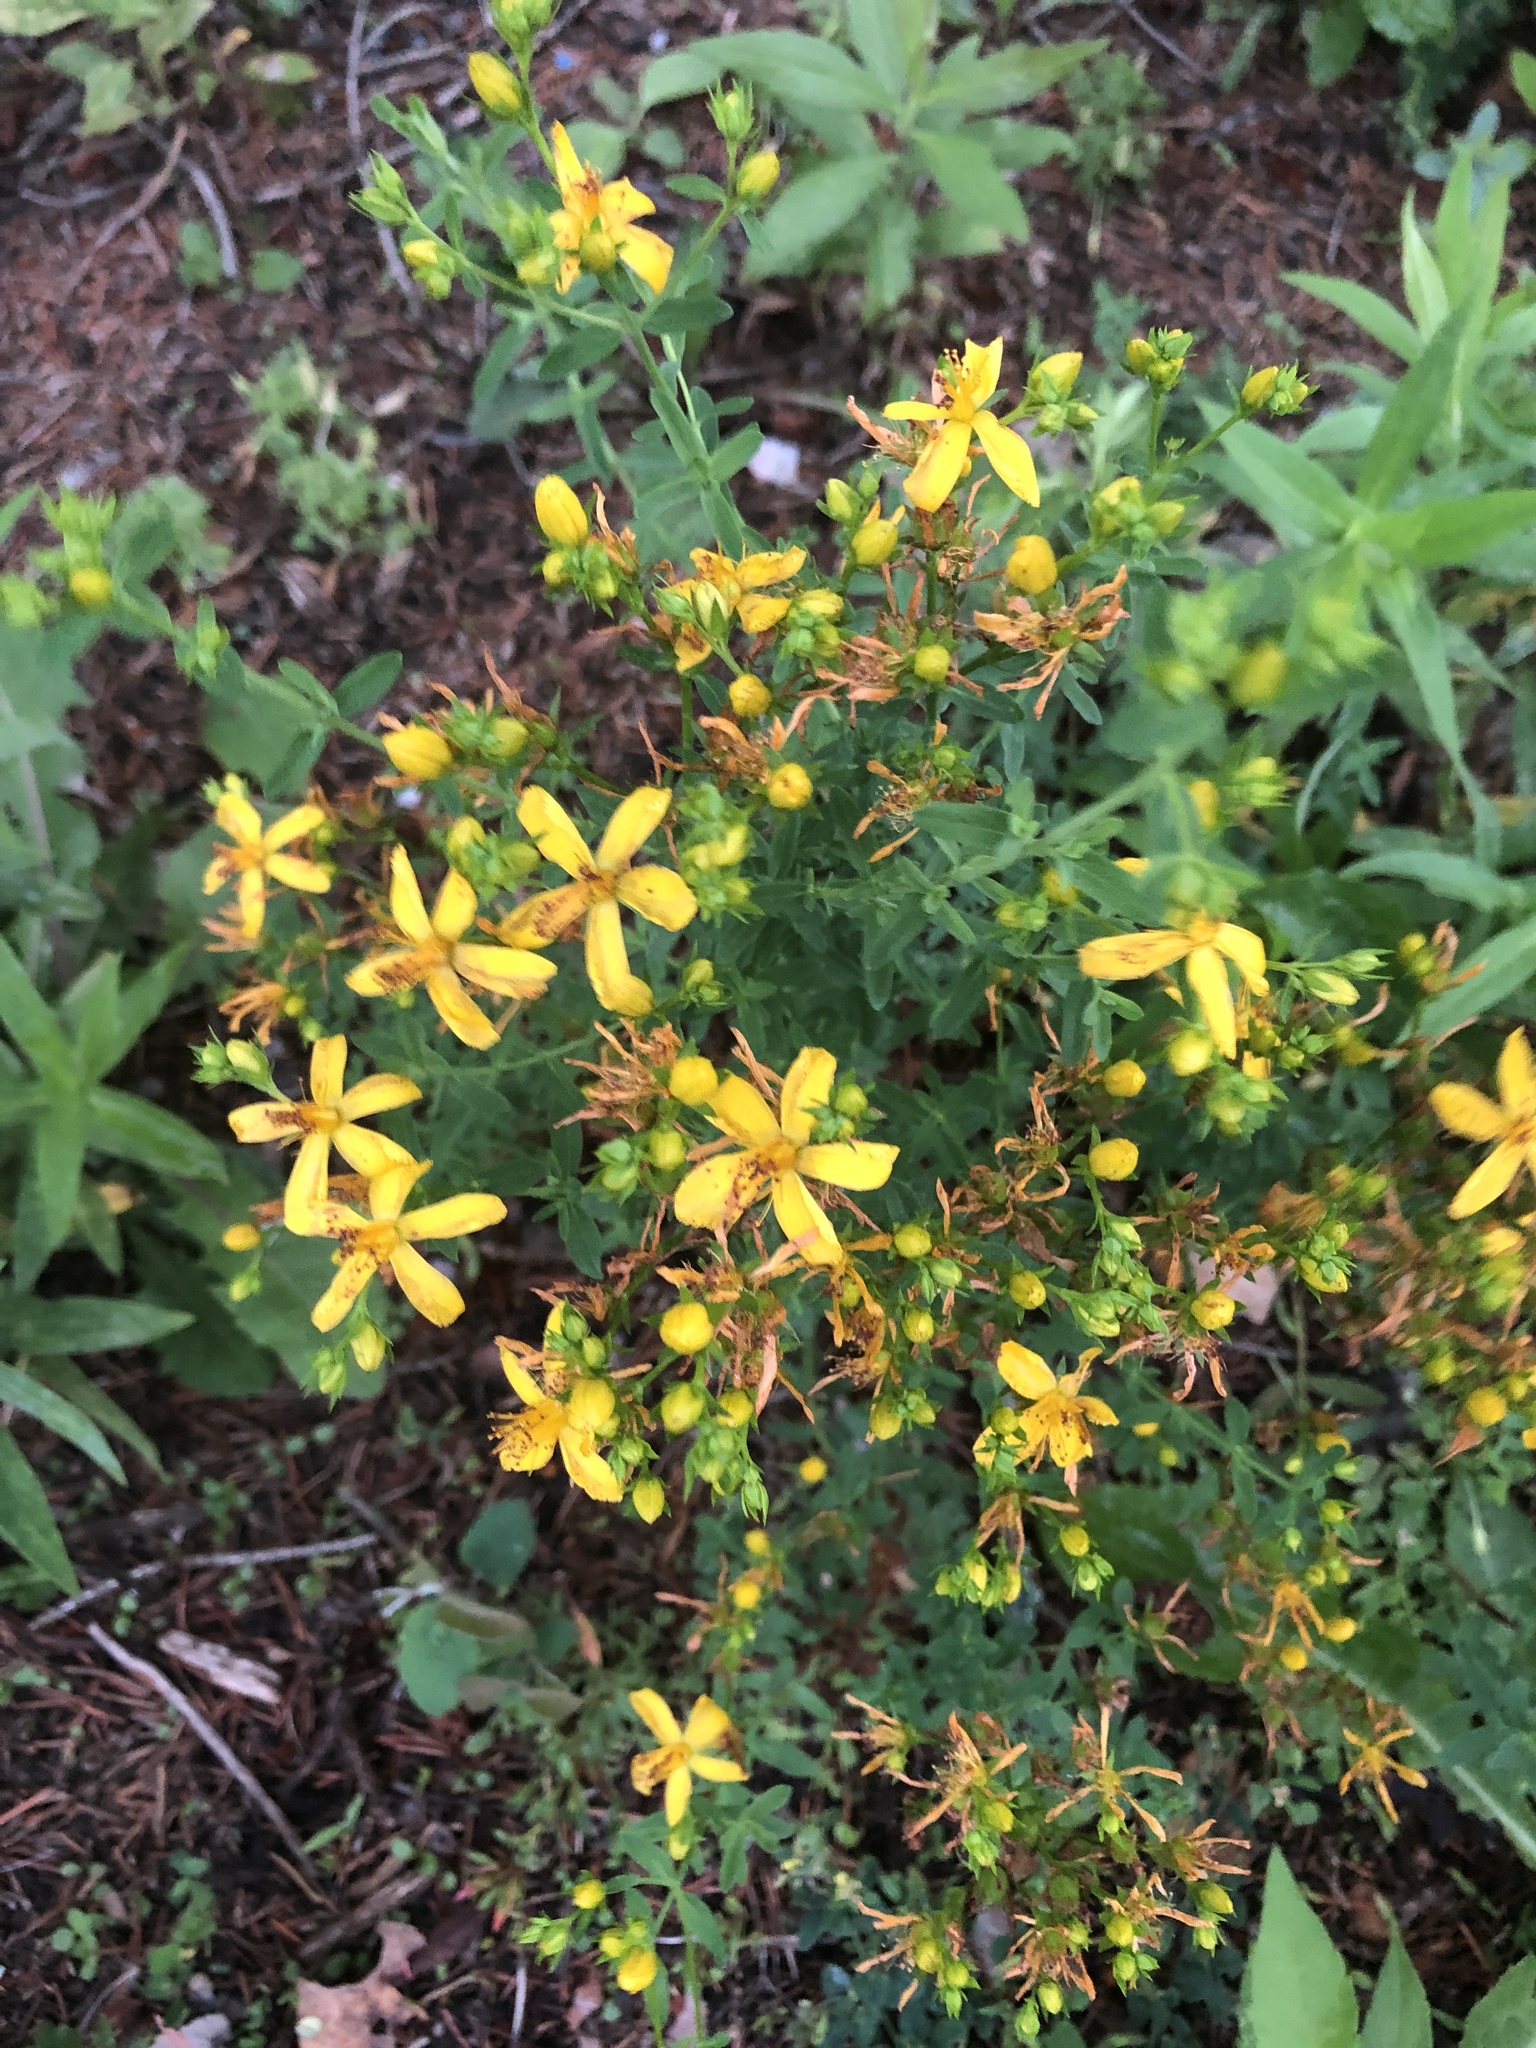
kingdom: Plantae
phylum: Tracheophyta
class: Magnoliopsida
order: Malpighiales
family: Hypericaceae
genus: Hypericum
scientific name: Hypericum perforatum
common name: Common st. johnswort
